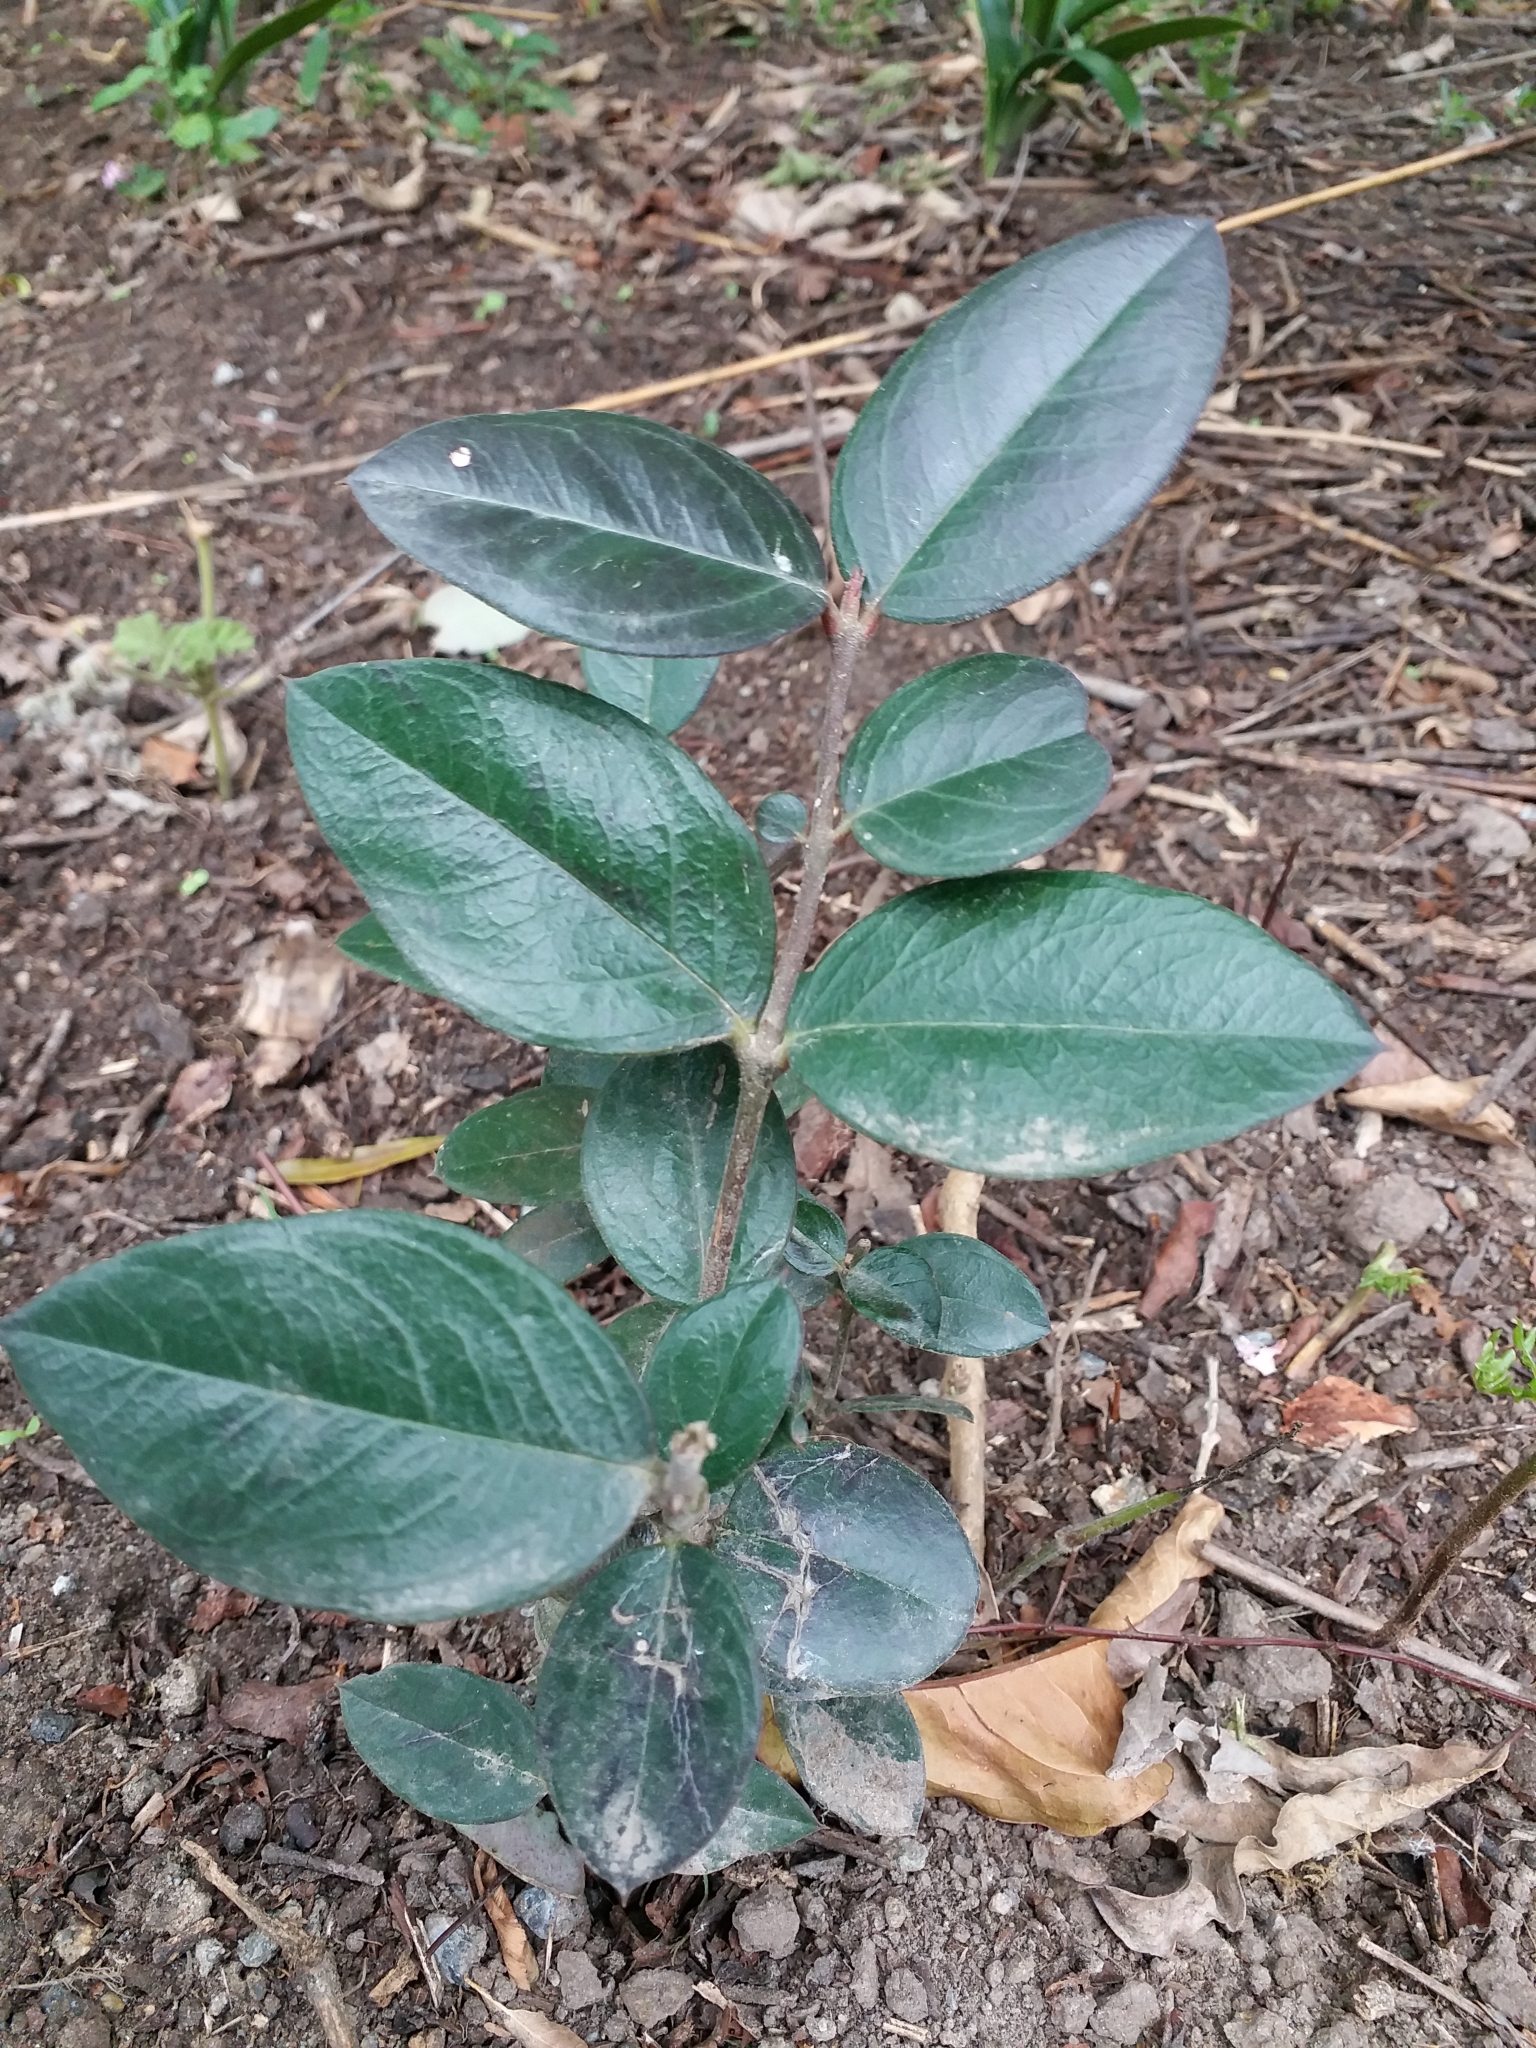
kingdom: Plantae
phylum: Tracheophyta
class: Magnoliopsida
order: Gentianales
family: Apocynaceae
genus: Acokanthera
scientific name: Acokanthera oppositifolia
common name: Bushman's-poison
